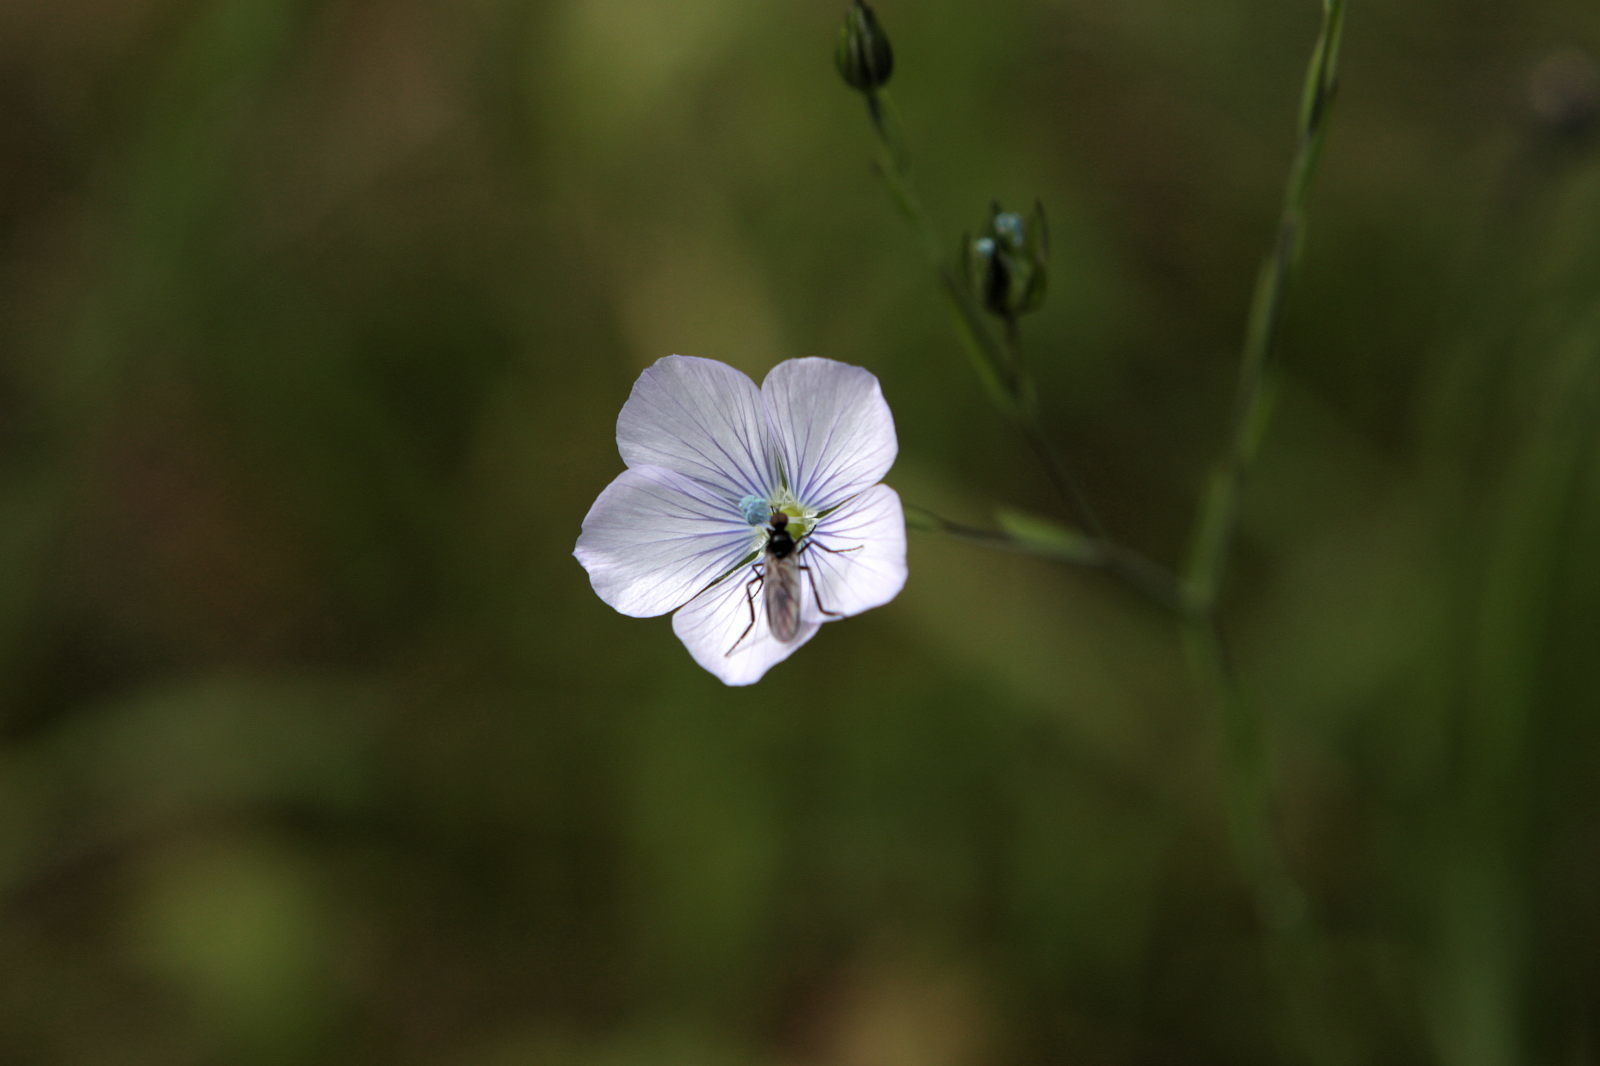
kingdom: Plantae
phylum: Tracheophyta
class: Magnoliopsida
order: Malpighiales
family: Linaceae
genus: Linum
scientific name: Linum bienne
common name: Pale flax
